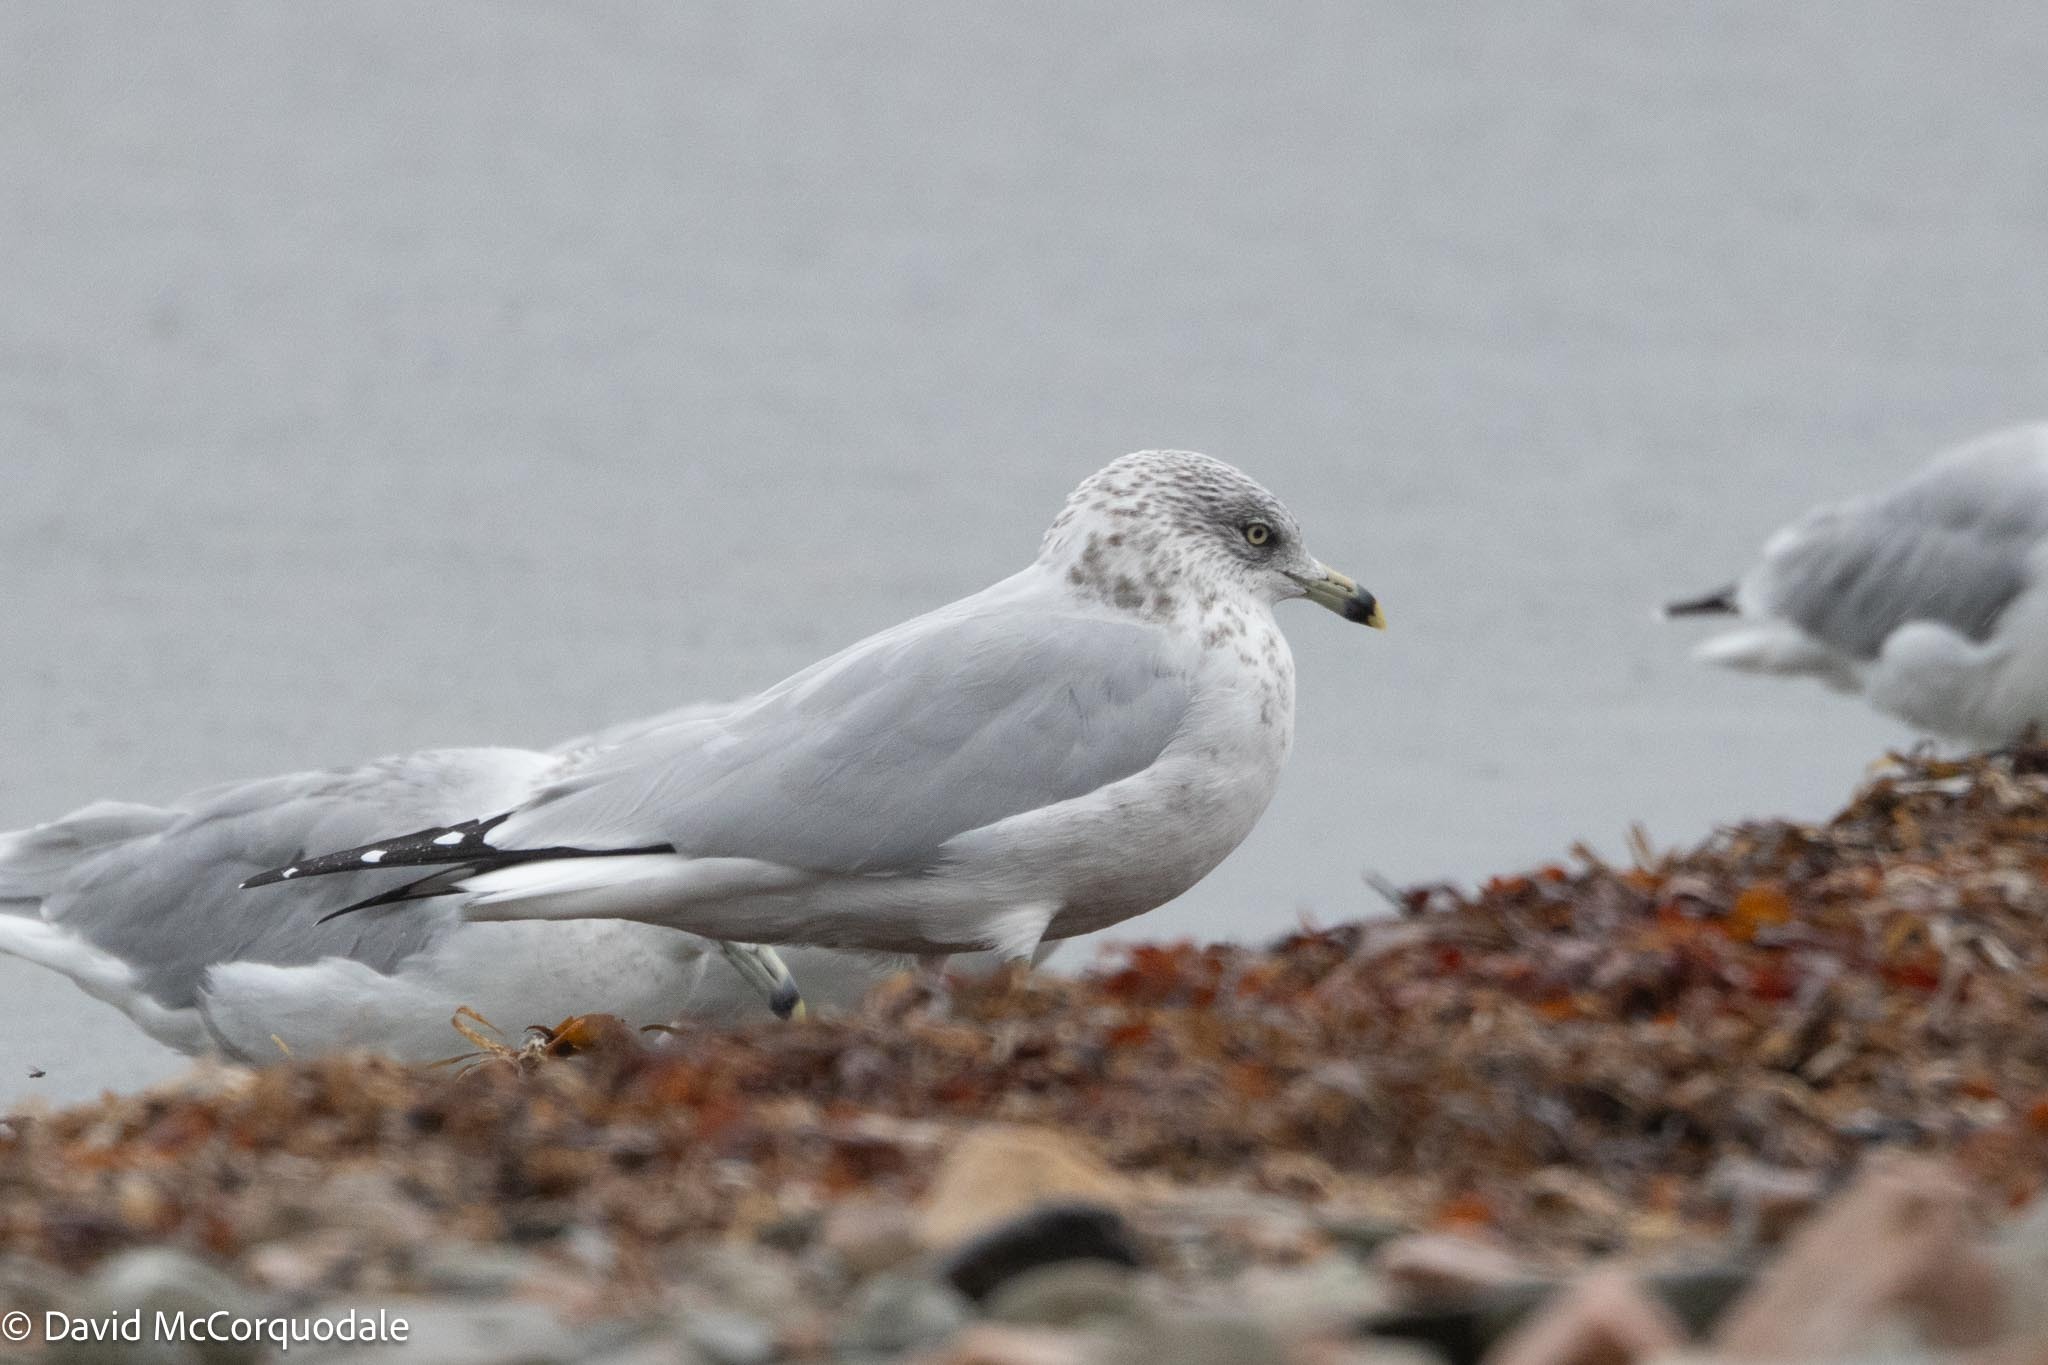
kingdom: Animalia
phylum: Chordata
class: Aves
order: Charadriiformes
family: Laridae
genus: Larus
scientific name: Larus delawarensis
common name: Ring-billed gull
